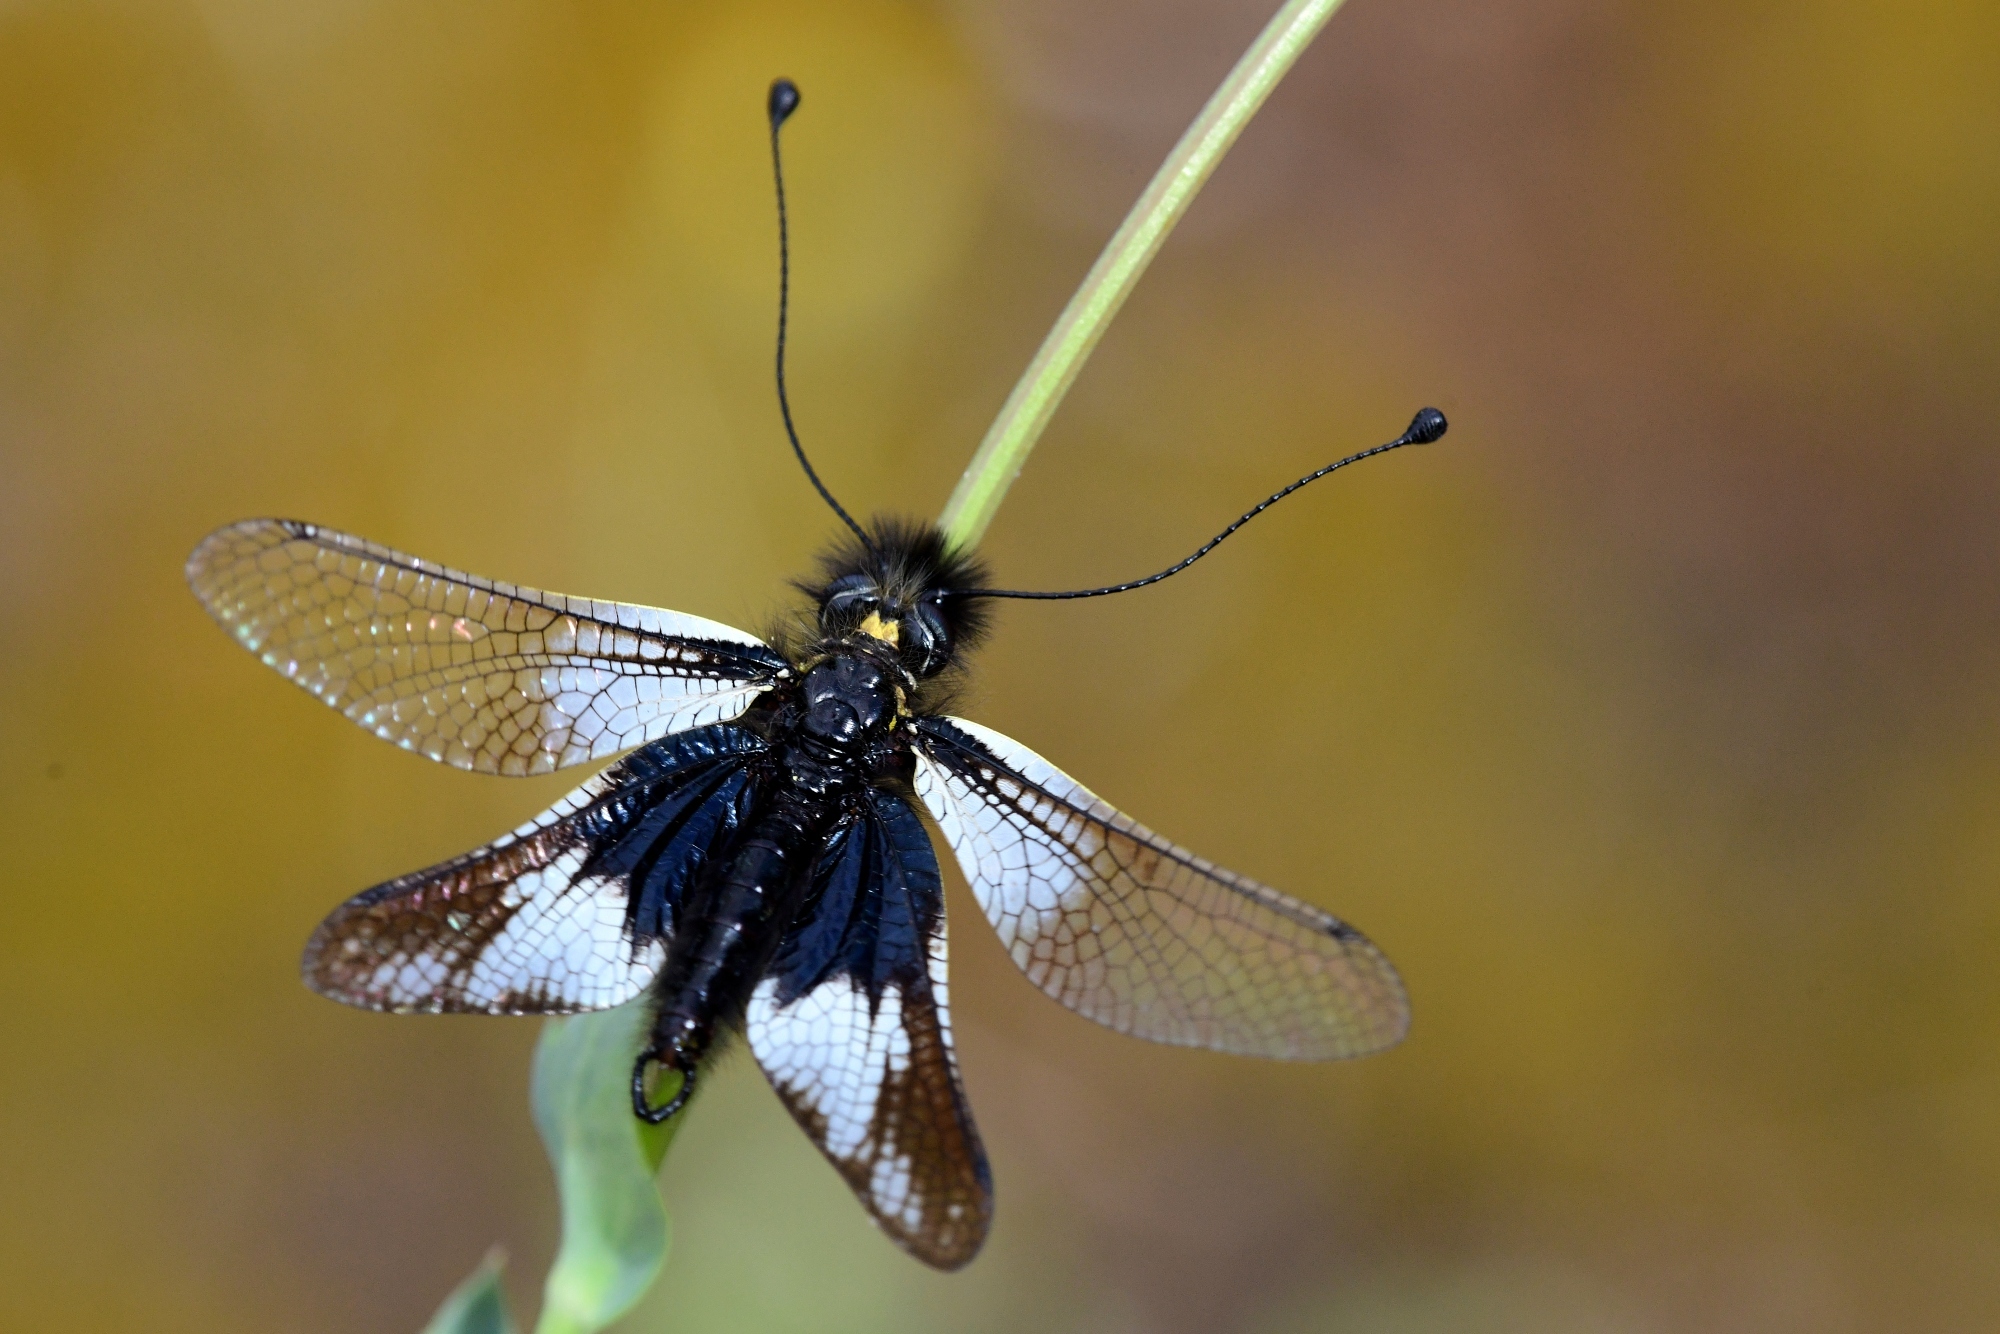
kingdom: Animalia
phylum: Arthropoda
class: Insecta
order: Neuroptera
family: Ascalaphidae
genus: Libelloides
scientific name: Libelloides lacteus
